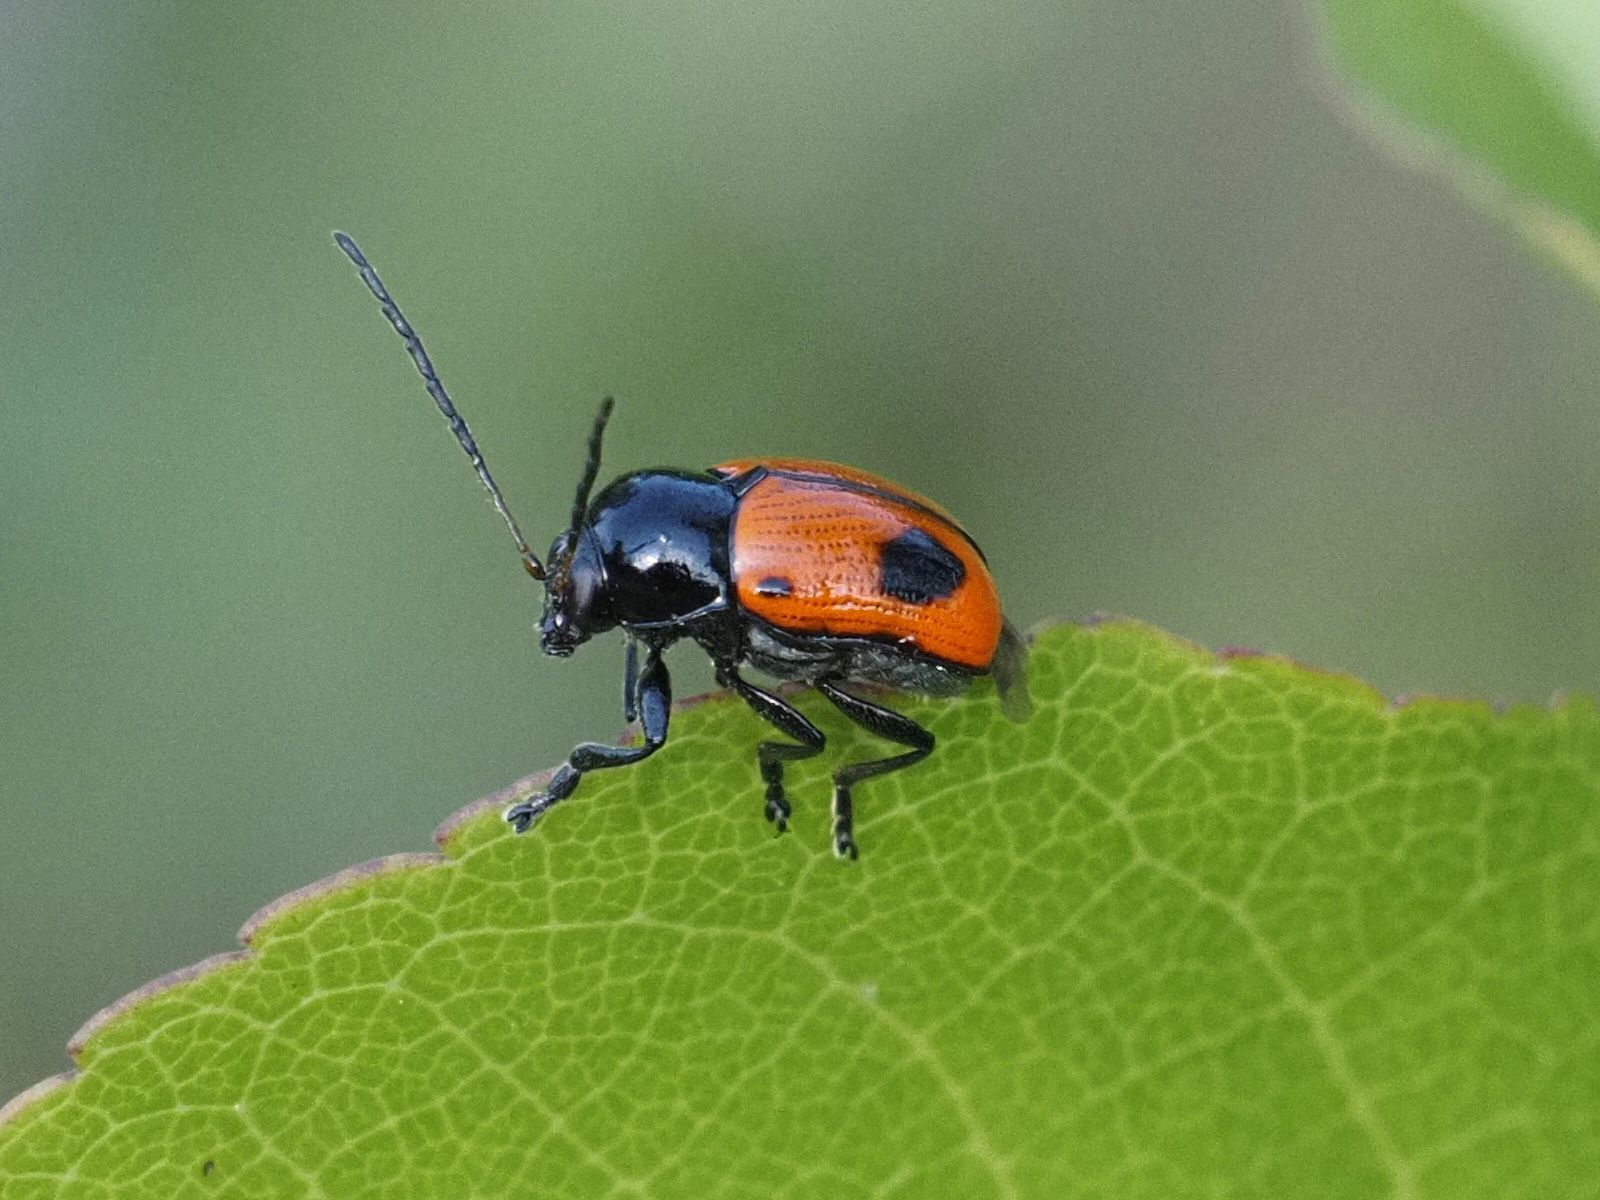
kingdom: Animalia
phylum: Arthropoda
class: Insecta
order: Coleoptera
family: Chrysomelidae
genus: Chiridopsis
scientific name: Chiridopsis bipunctata
